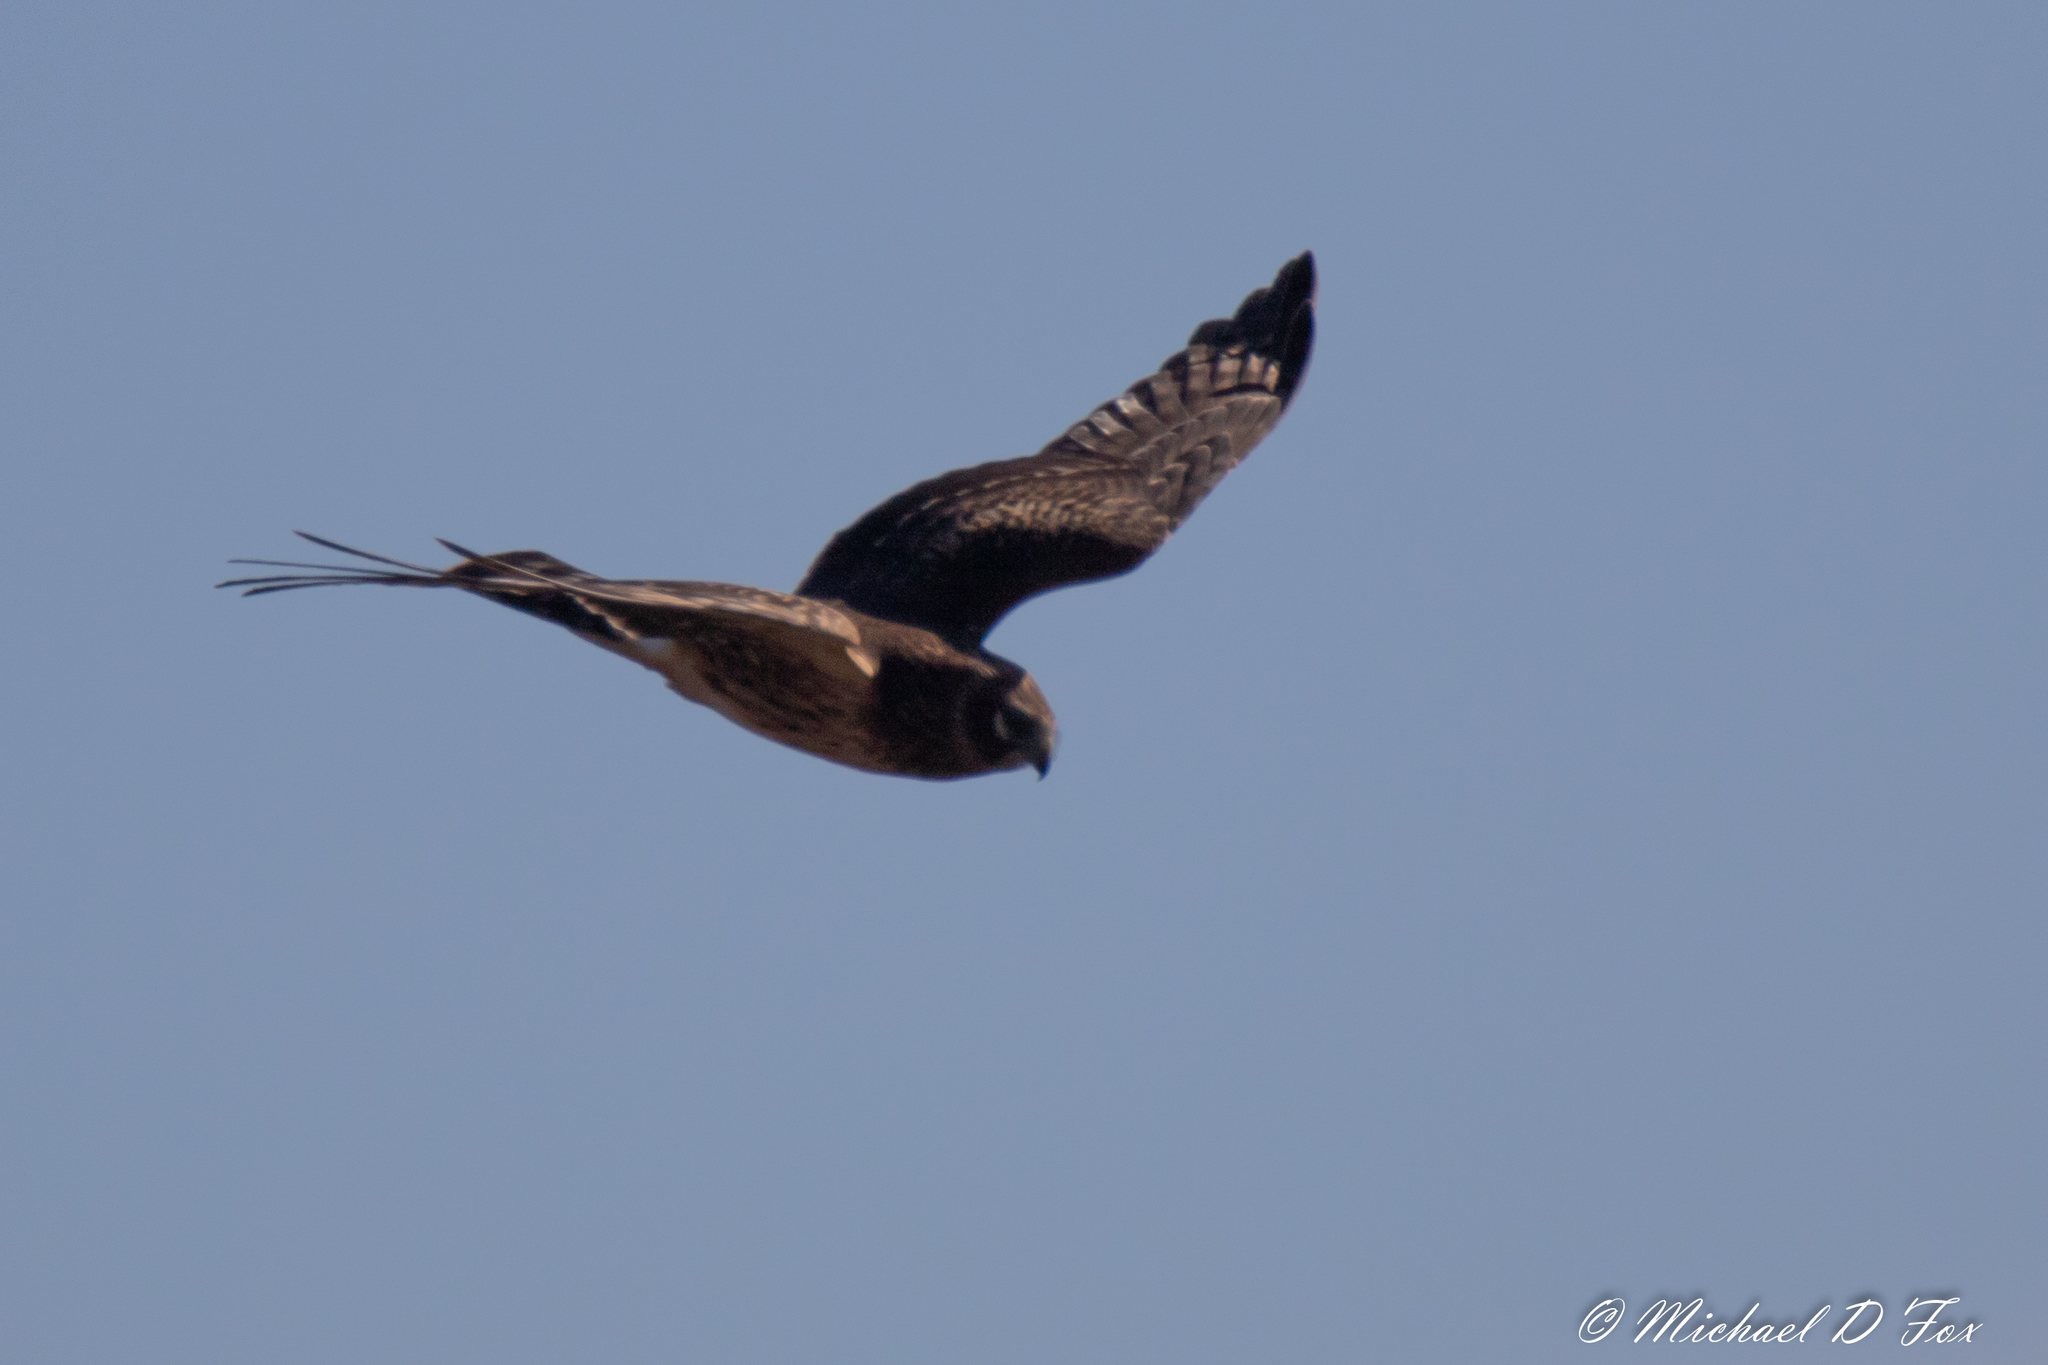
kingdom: Animalia
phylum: Chordata
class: Aves
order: Accipitriformes
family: Accipitridae
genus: Circus
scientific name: Circus cyaneus
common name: Hen harrier
